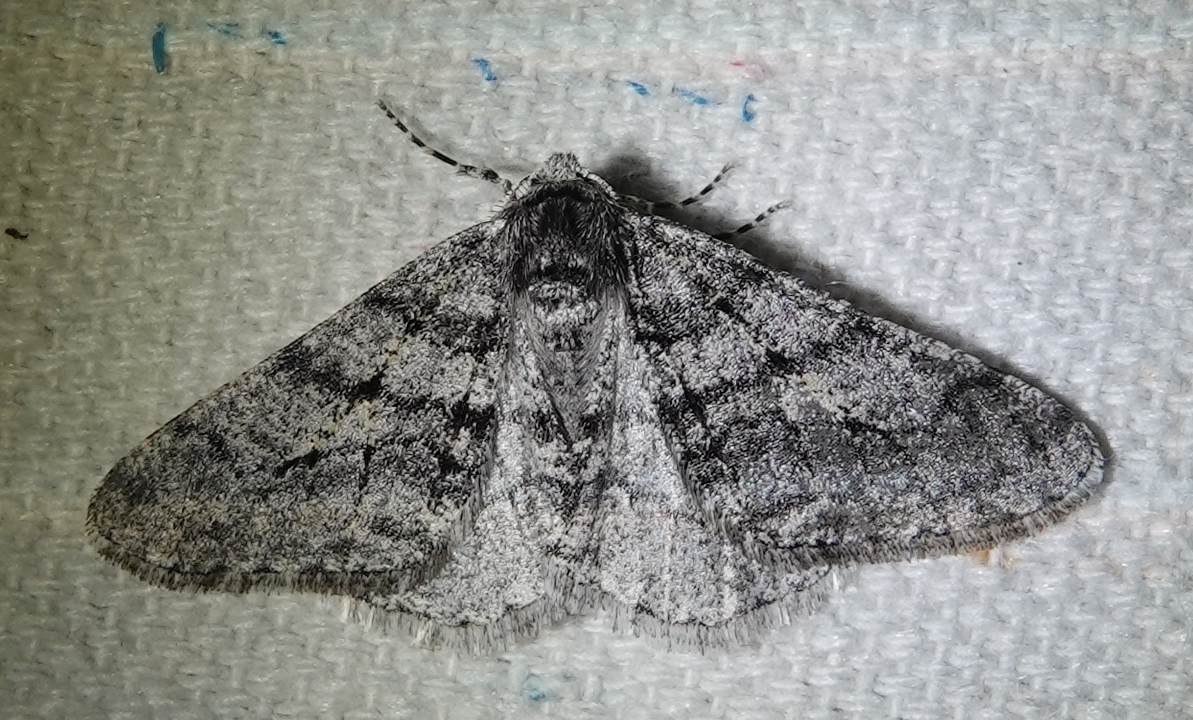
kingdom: Animalia
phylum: Arthropoda
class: Insecta
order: Lepidoptera
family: Geometridae
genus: Phigalia
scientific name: Phigalia titea
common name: Spiny looper
